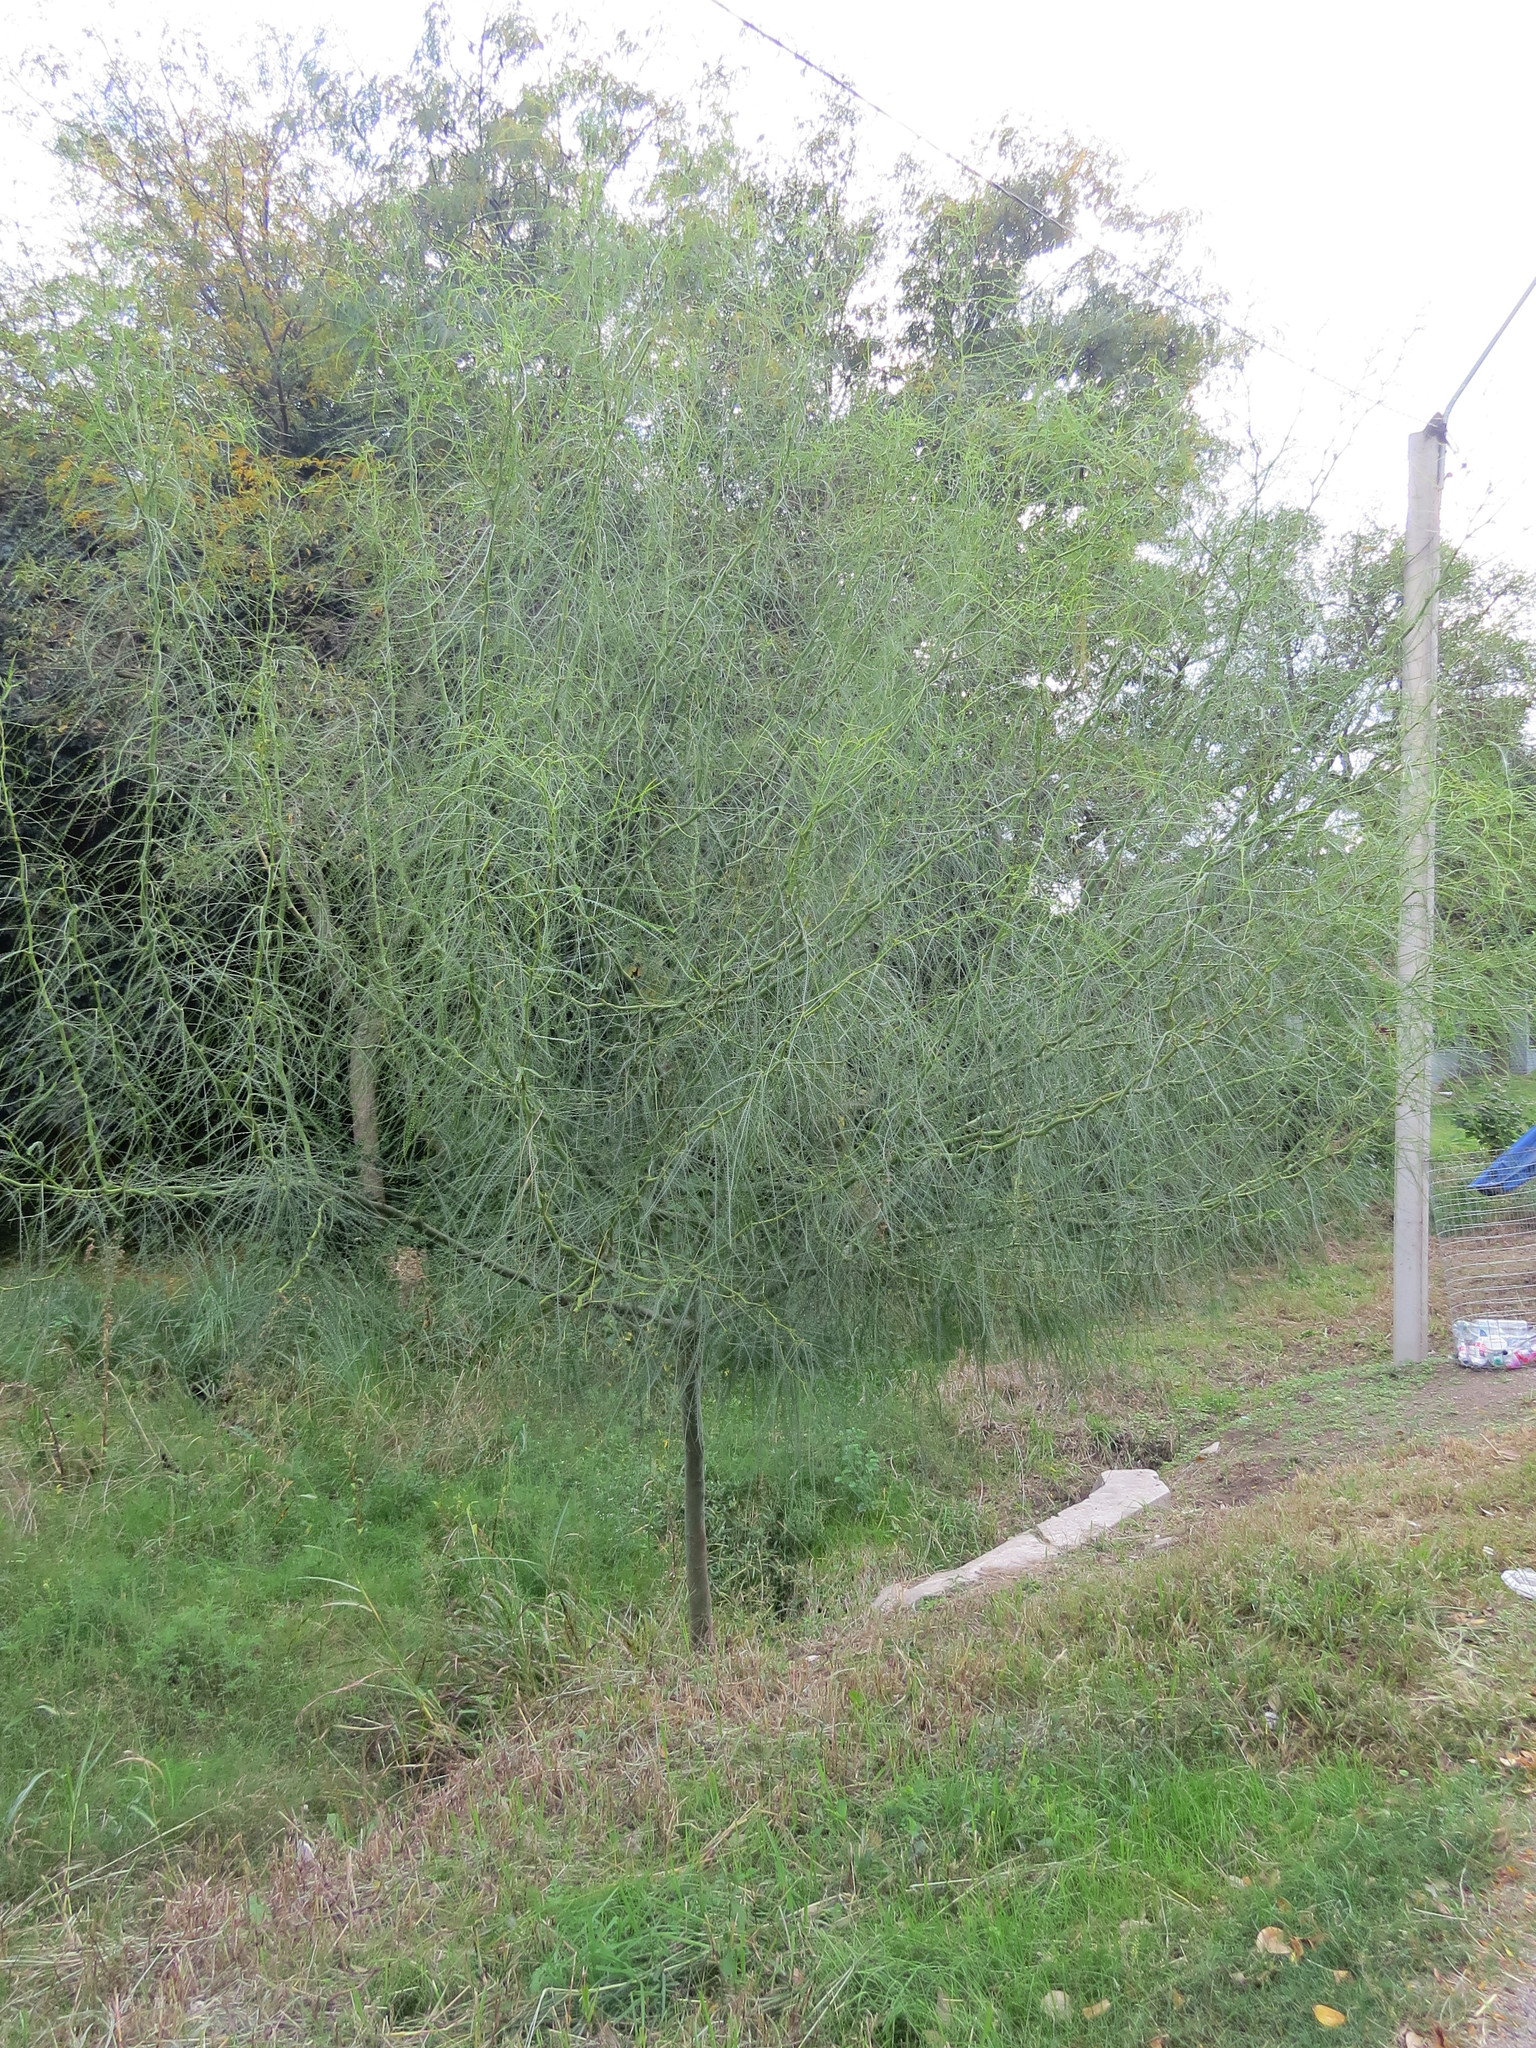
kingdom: Plantae
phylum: Tracheophyta
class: Magnoliopsida
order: Fabales
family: Fabaceae
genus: Parkinsonia
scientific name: Parkinsonia aculeata
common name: Jerusalem thorn
